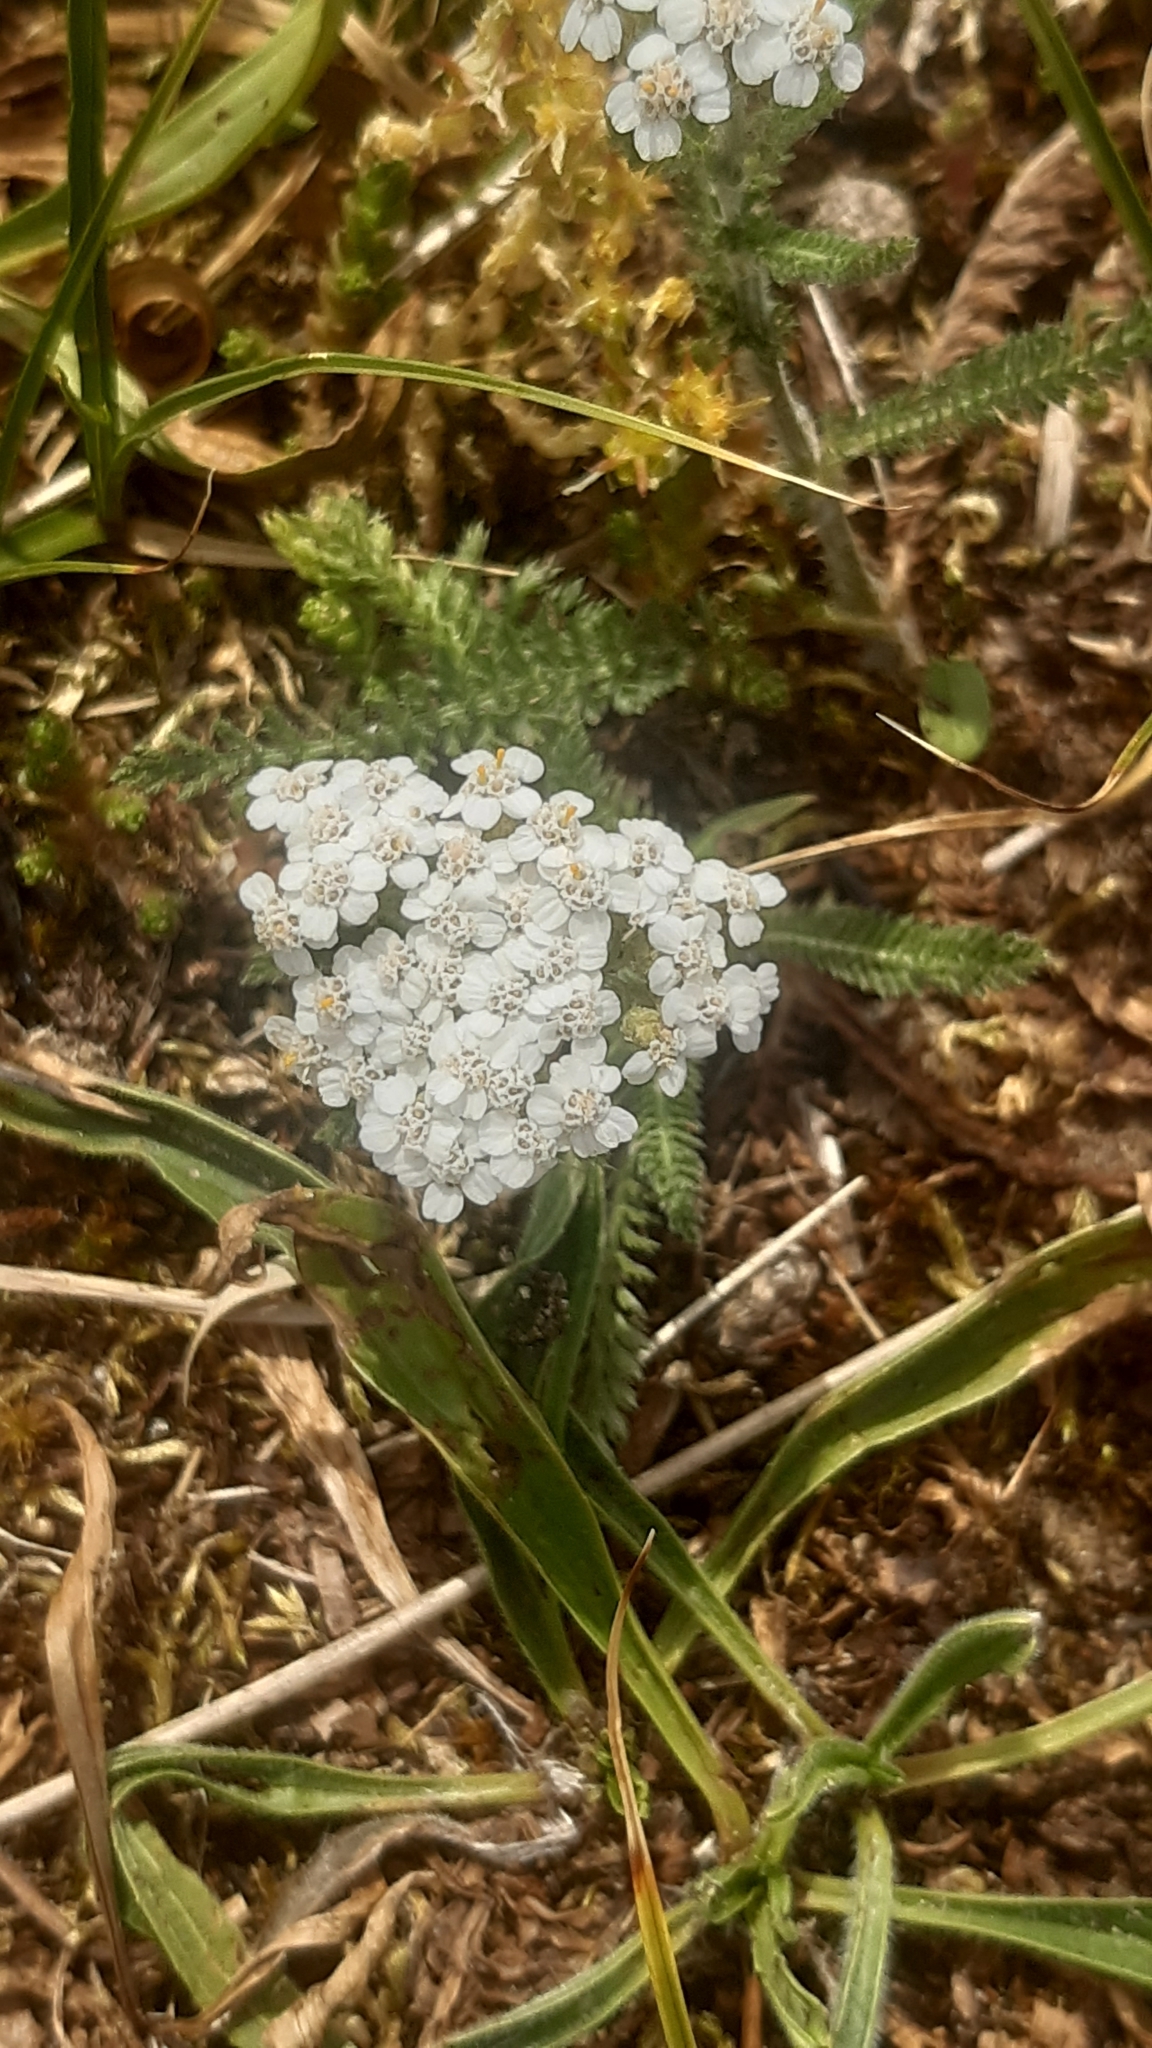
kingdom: Plantae
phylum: Tracheophyta
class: Magnoliopsida
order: Asterales
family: Asteraceae
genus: Achillea
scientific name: Achillea millefolium
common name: Yarrow
